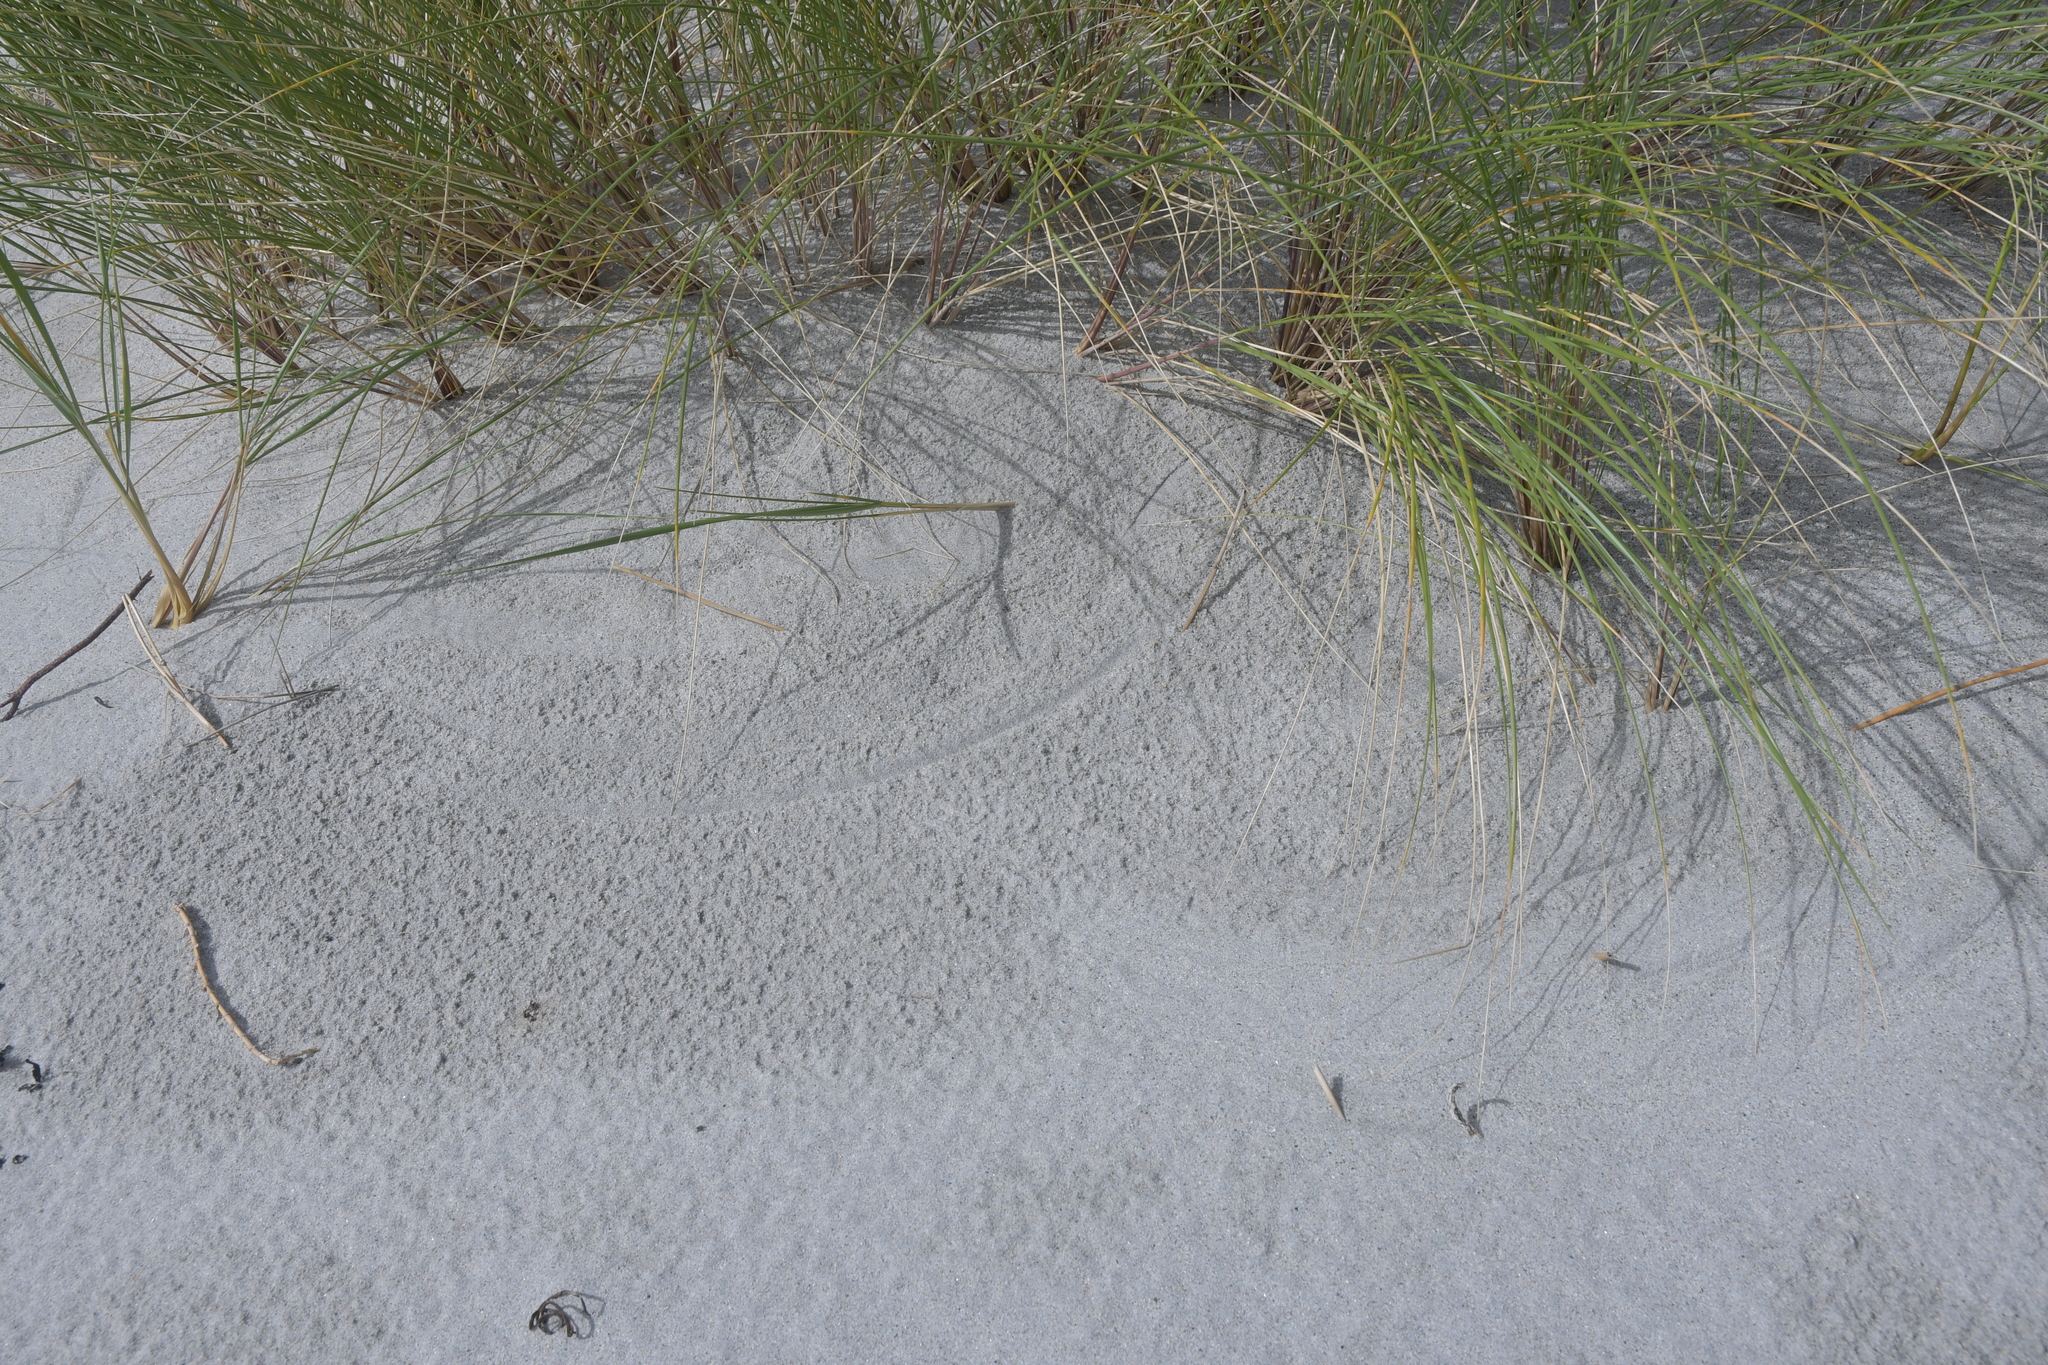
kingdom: Plantae
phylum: Tracheophyta
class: Liliopsida
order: Poales
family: Poaceae
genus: Calamagrostis
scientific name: Calamagrostis arenaria
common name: European beachgrass
